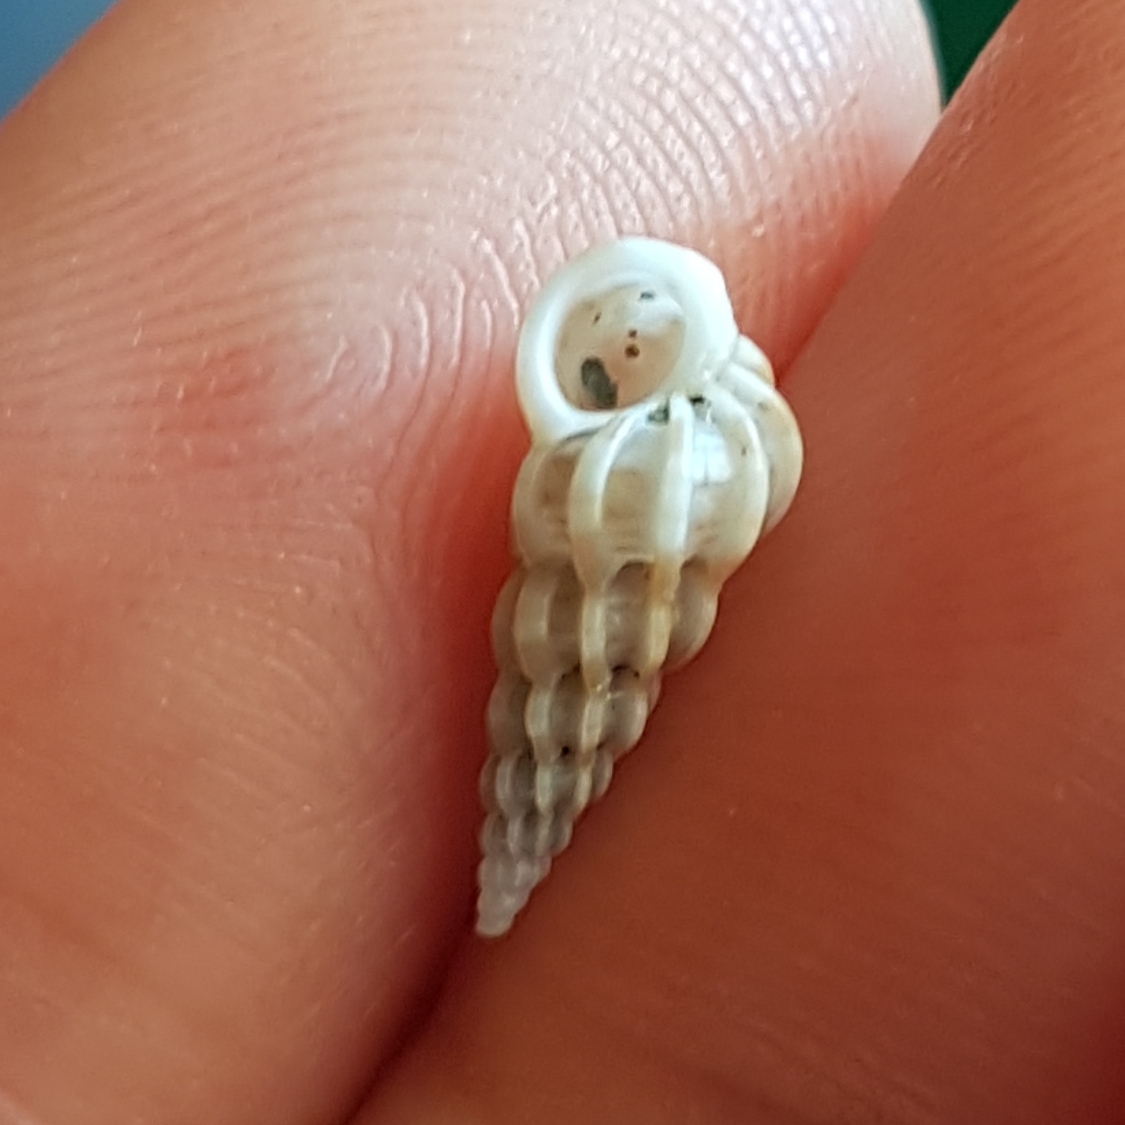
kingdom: Animalia
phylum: Mollusca
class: Gastropoda
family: Epitoniidae
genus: Epitonium
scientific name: Epitonium clathrus
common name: Common wentletrap
